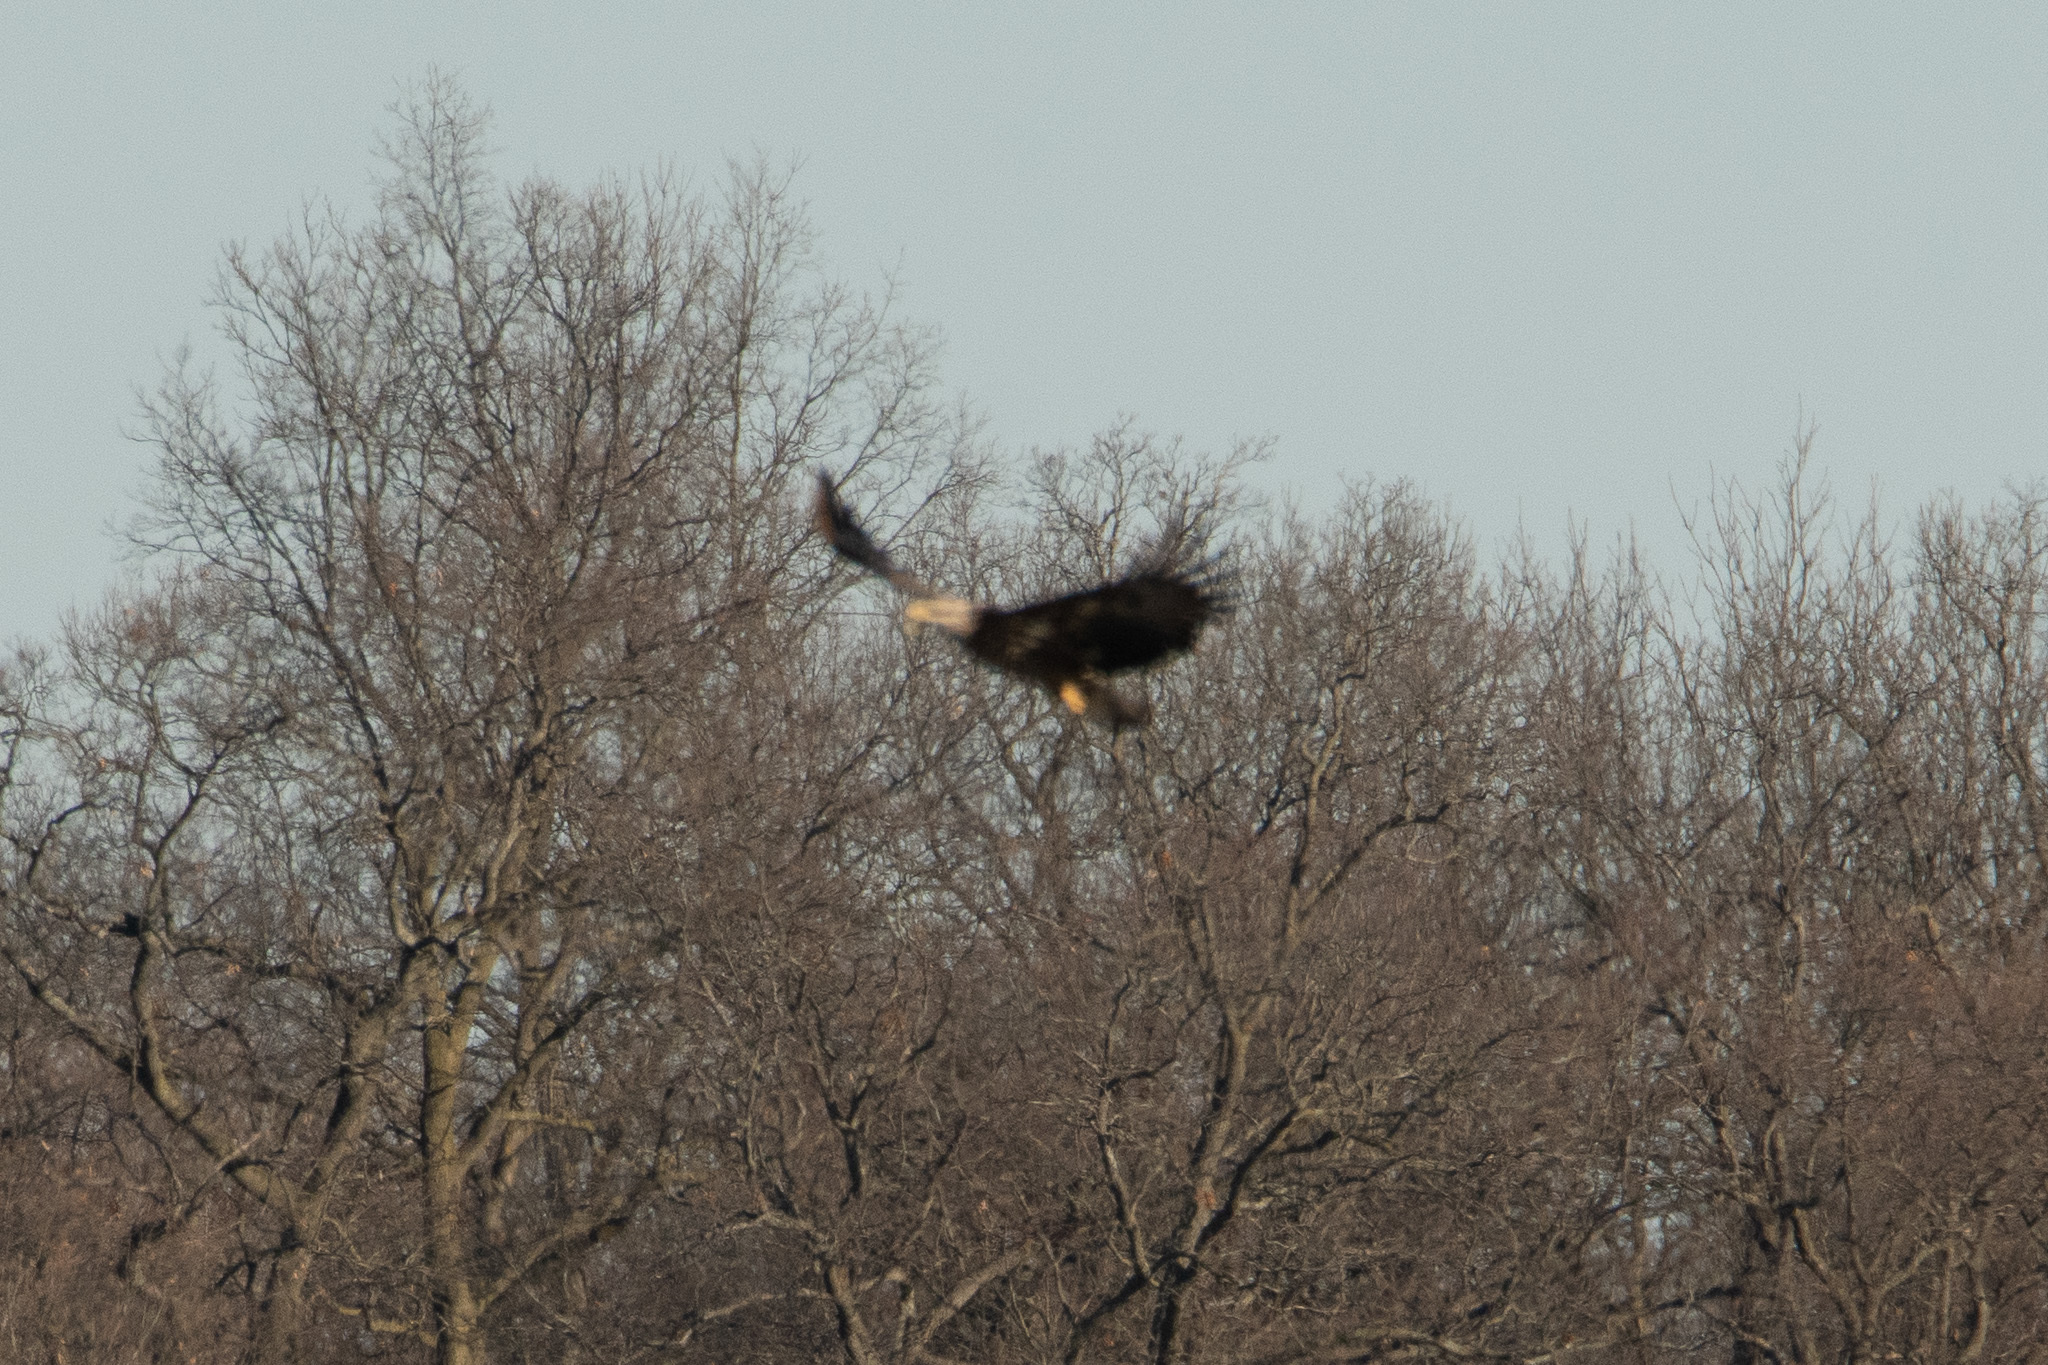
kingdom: Animalia
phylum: Chordata
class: Aves
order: Accipitriformes
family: Accipitridae
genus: Haliaeetus
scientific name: Haliaeetus leucocephalus
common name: Bald eagle
